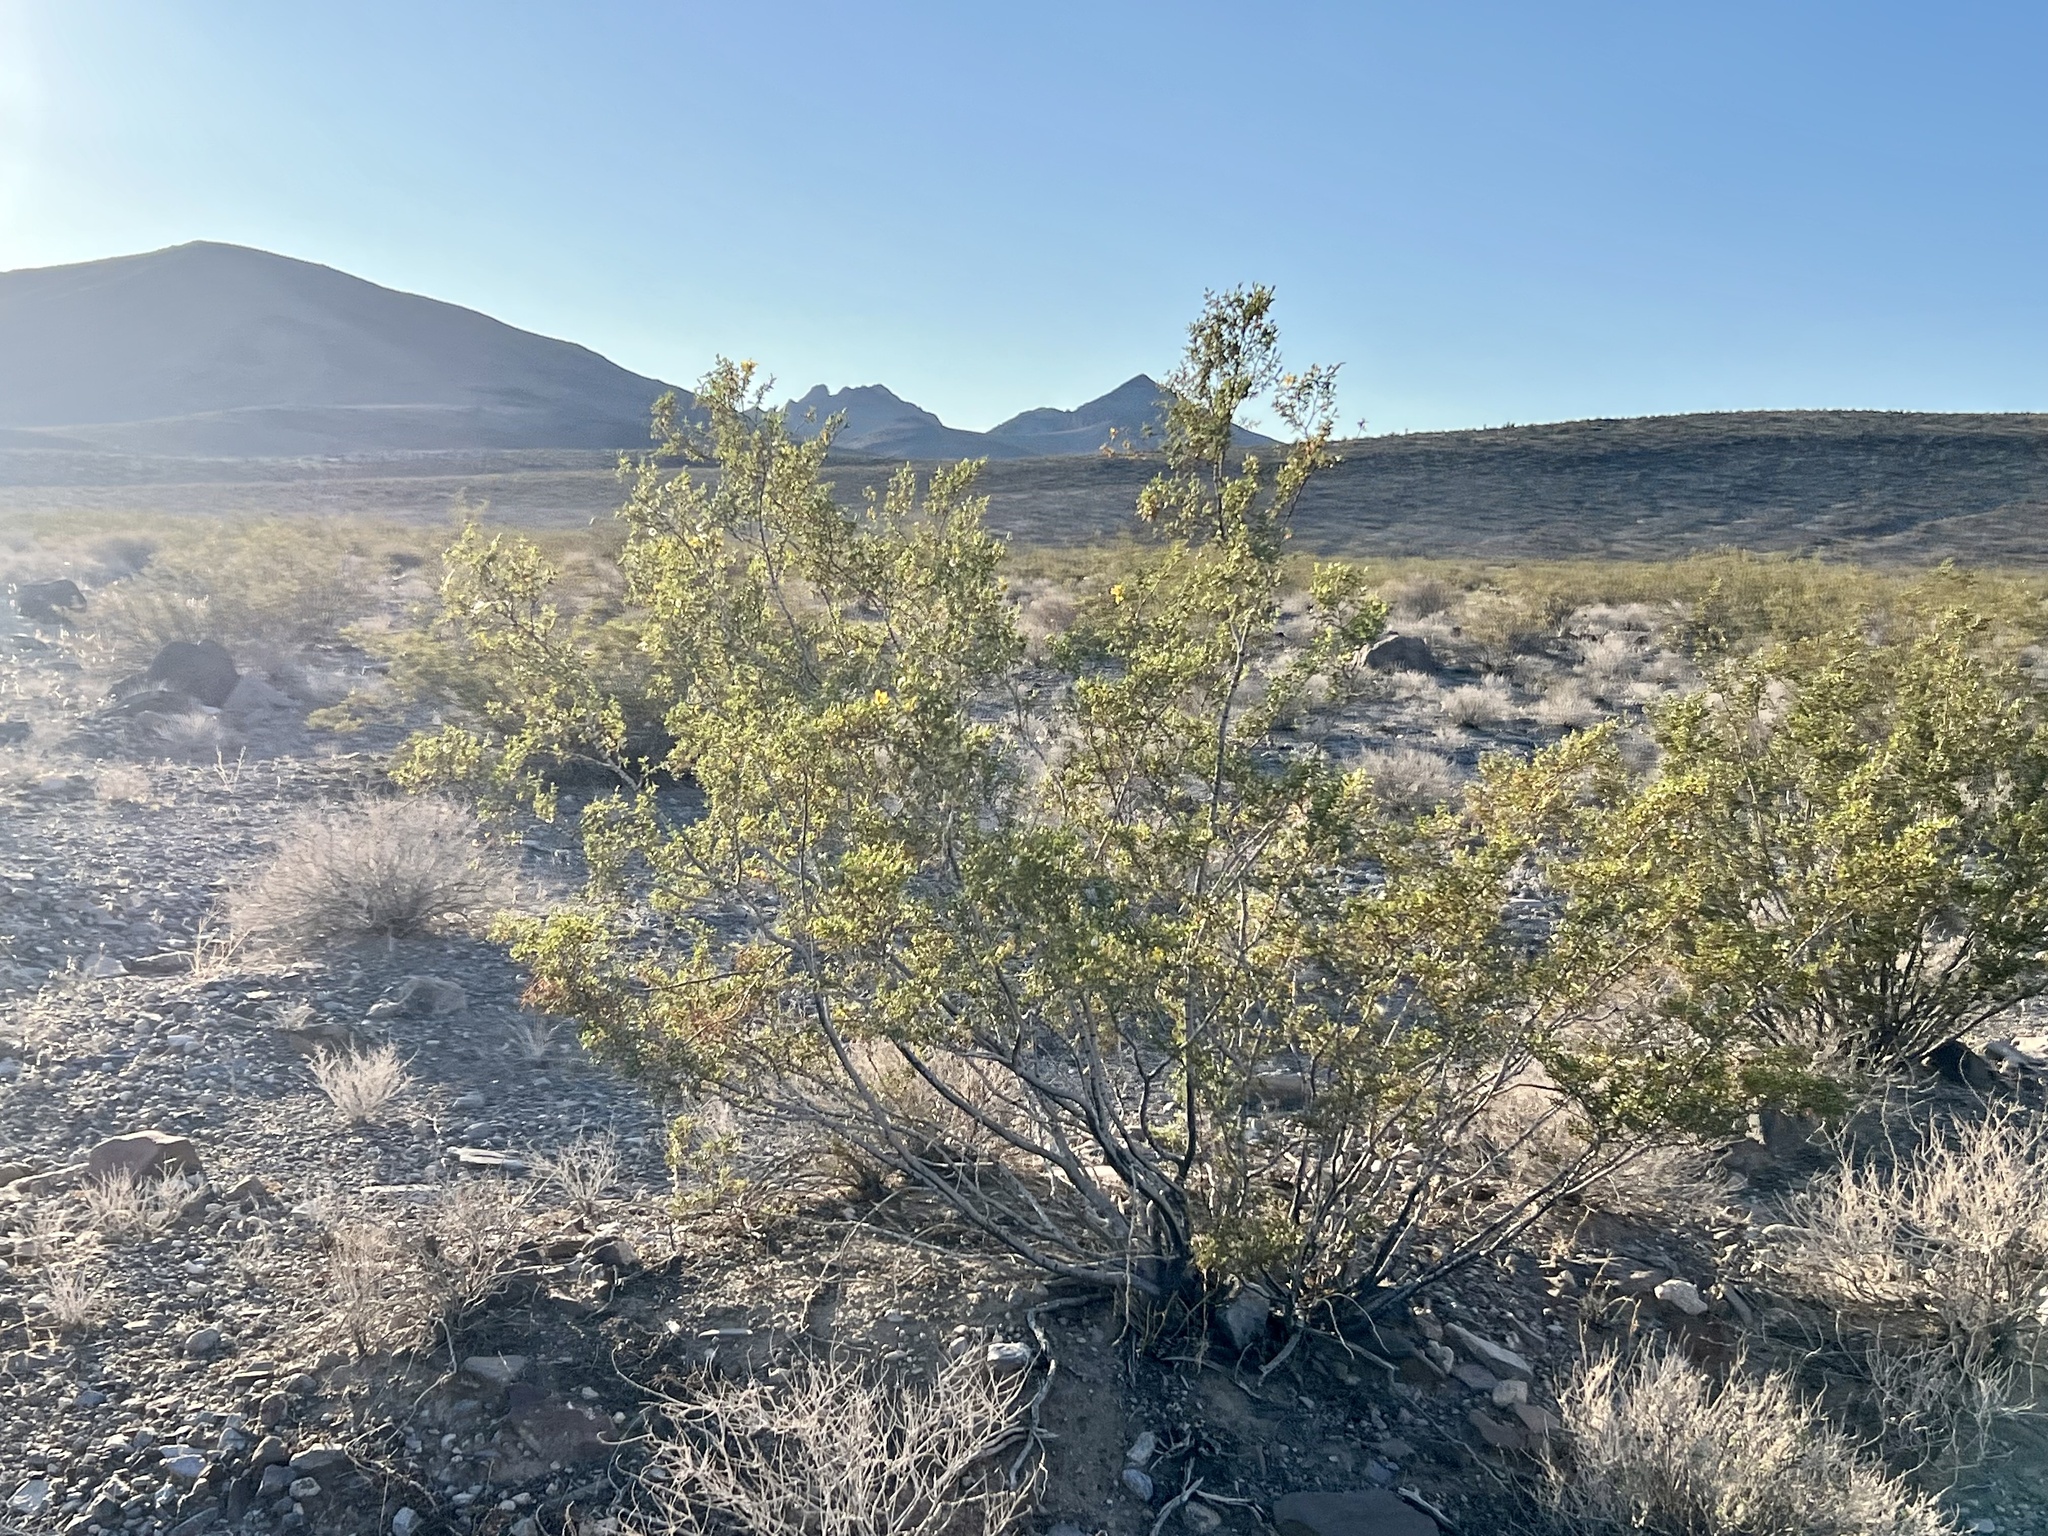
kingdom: Plantae
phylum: Tracheophyta
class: Magnoliopsida
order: Zygophyllales
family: Zygophyllaceae
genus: Larrea
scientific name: Larrea tridentata
